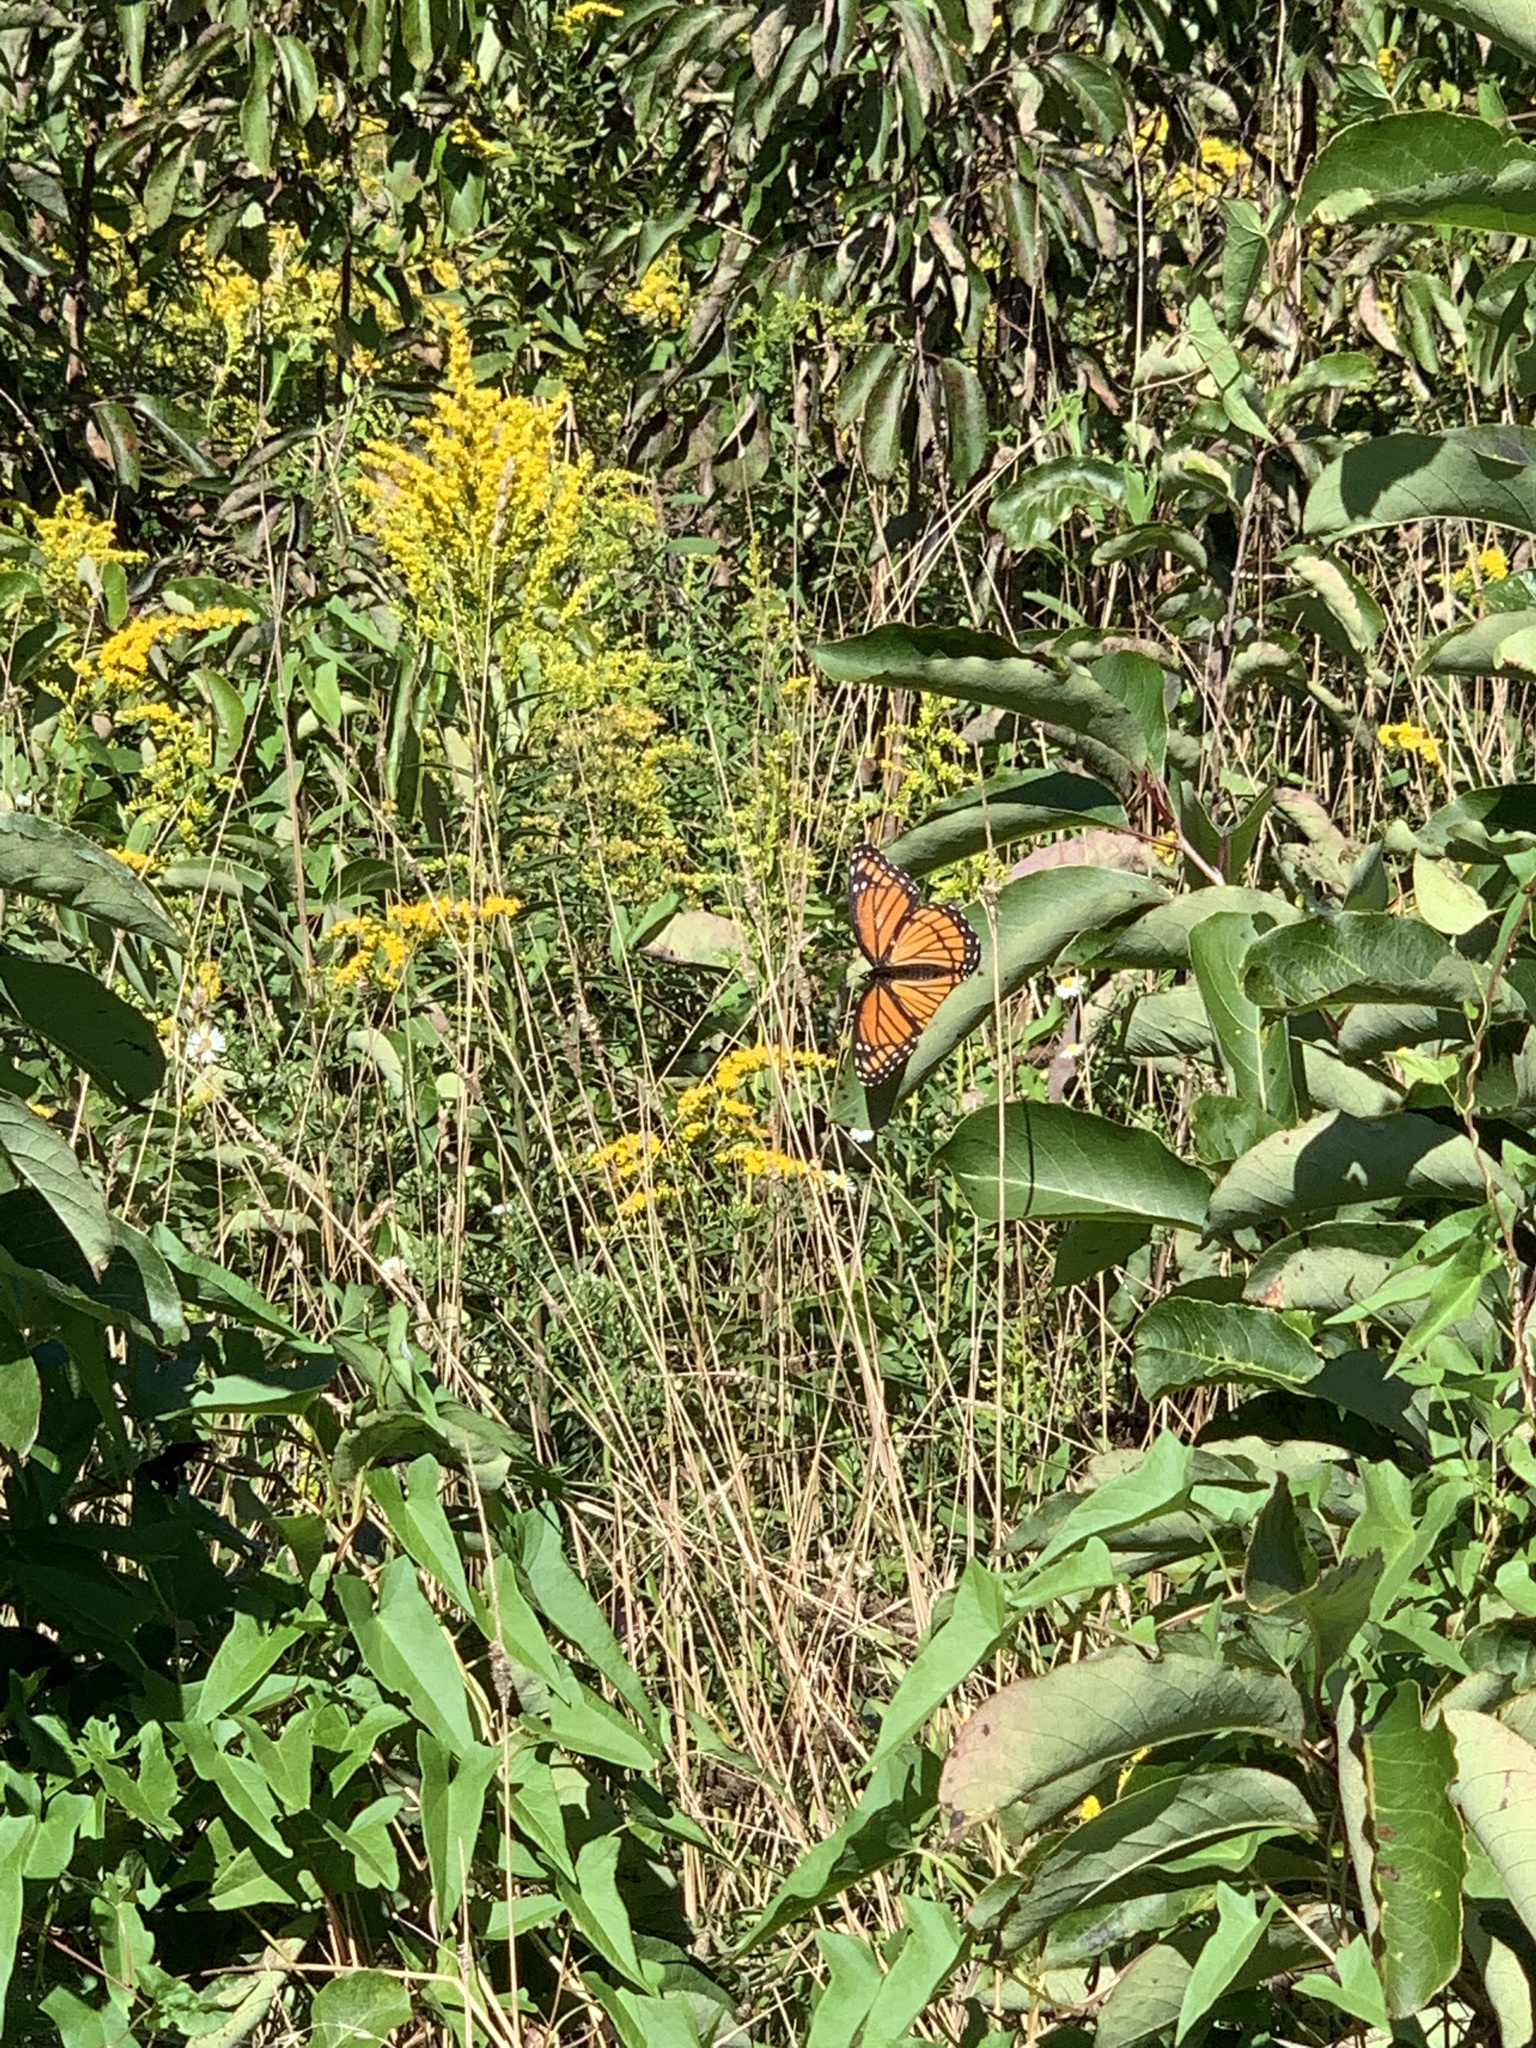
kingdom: Animalia
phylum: Arthropoda
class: Insecta
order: Lepidoptera
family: Nymphalidae
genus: Limenitis
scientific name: Limenitis archippus
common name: Viceroy
